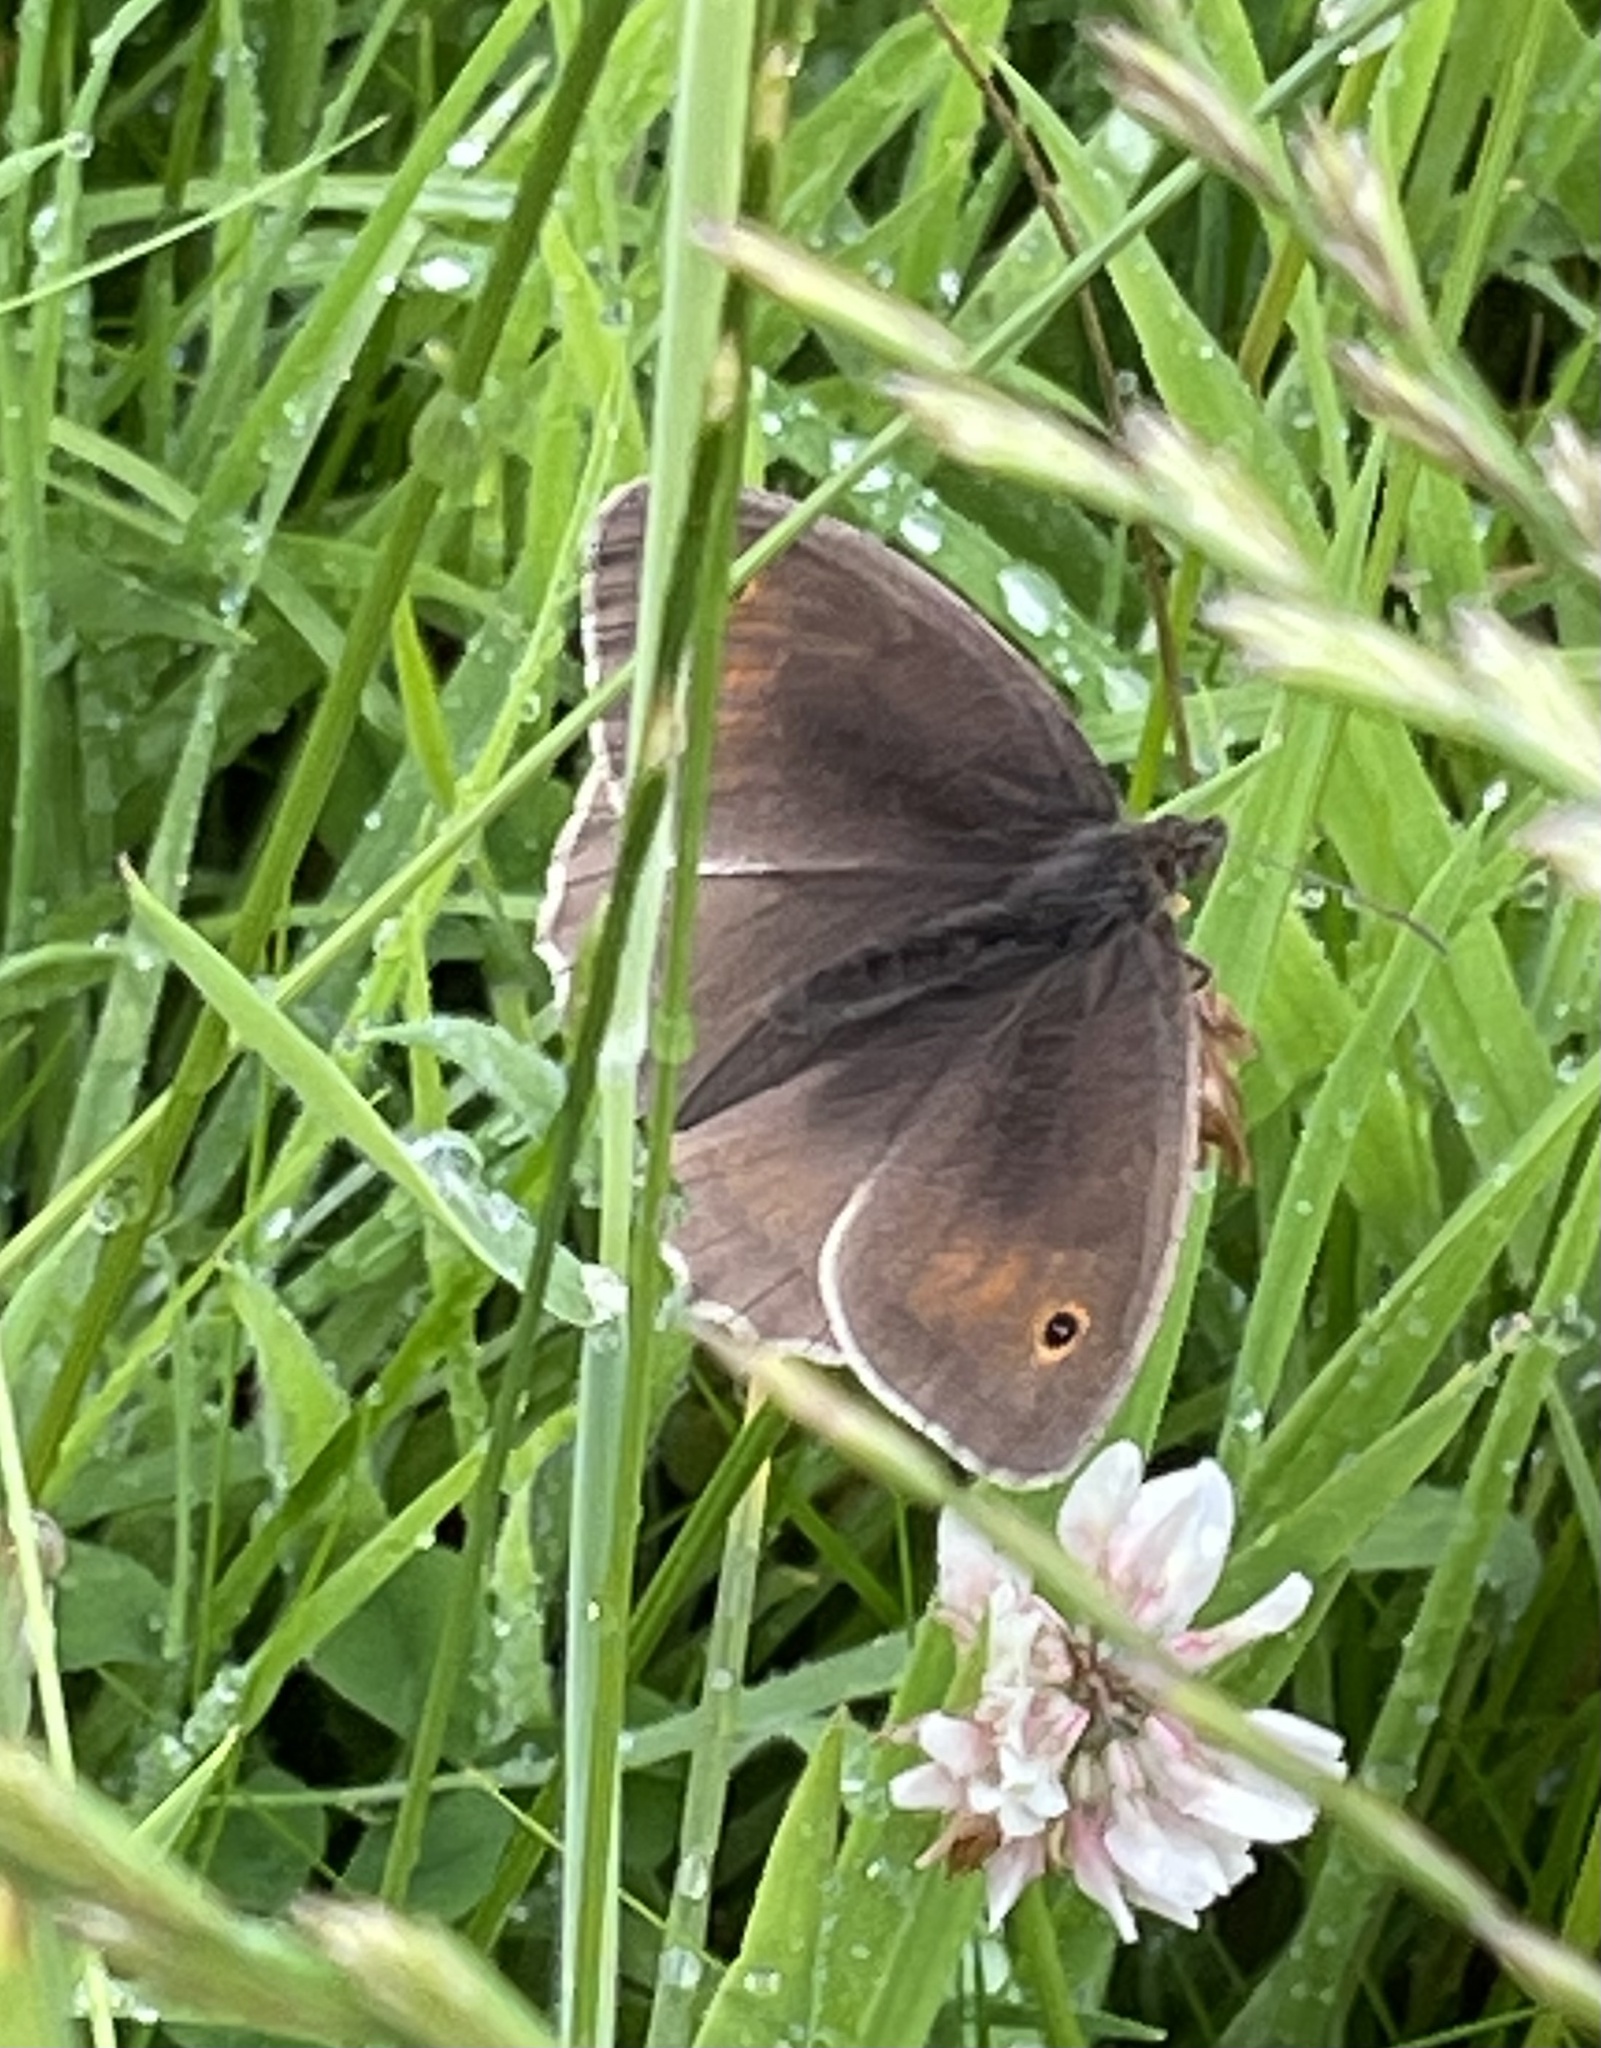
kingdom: Animalia
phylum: Arthropoda
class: Insecta
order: Lepidoptera
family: Nymphalidae
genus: Maniola
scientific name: Maniola jurtina
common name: Meadow brown
